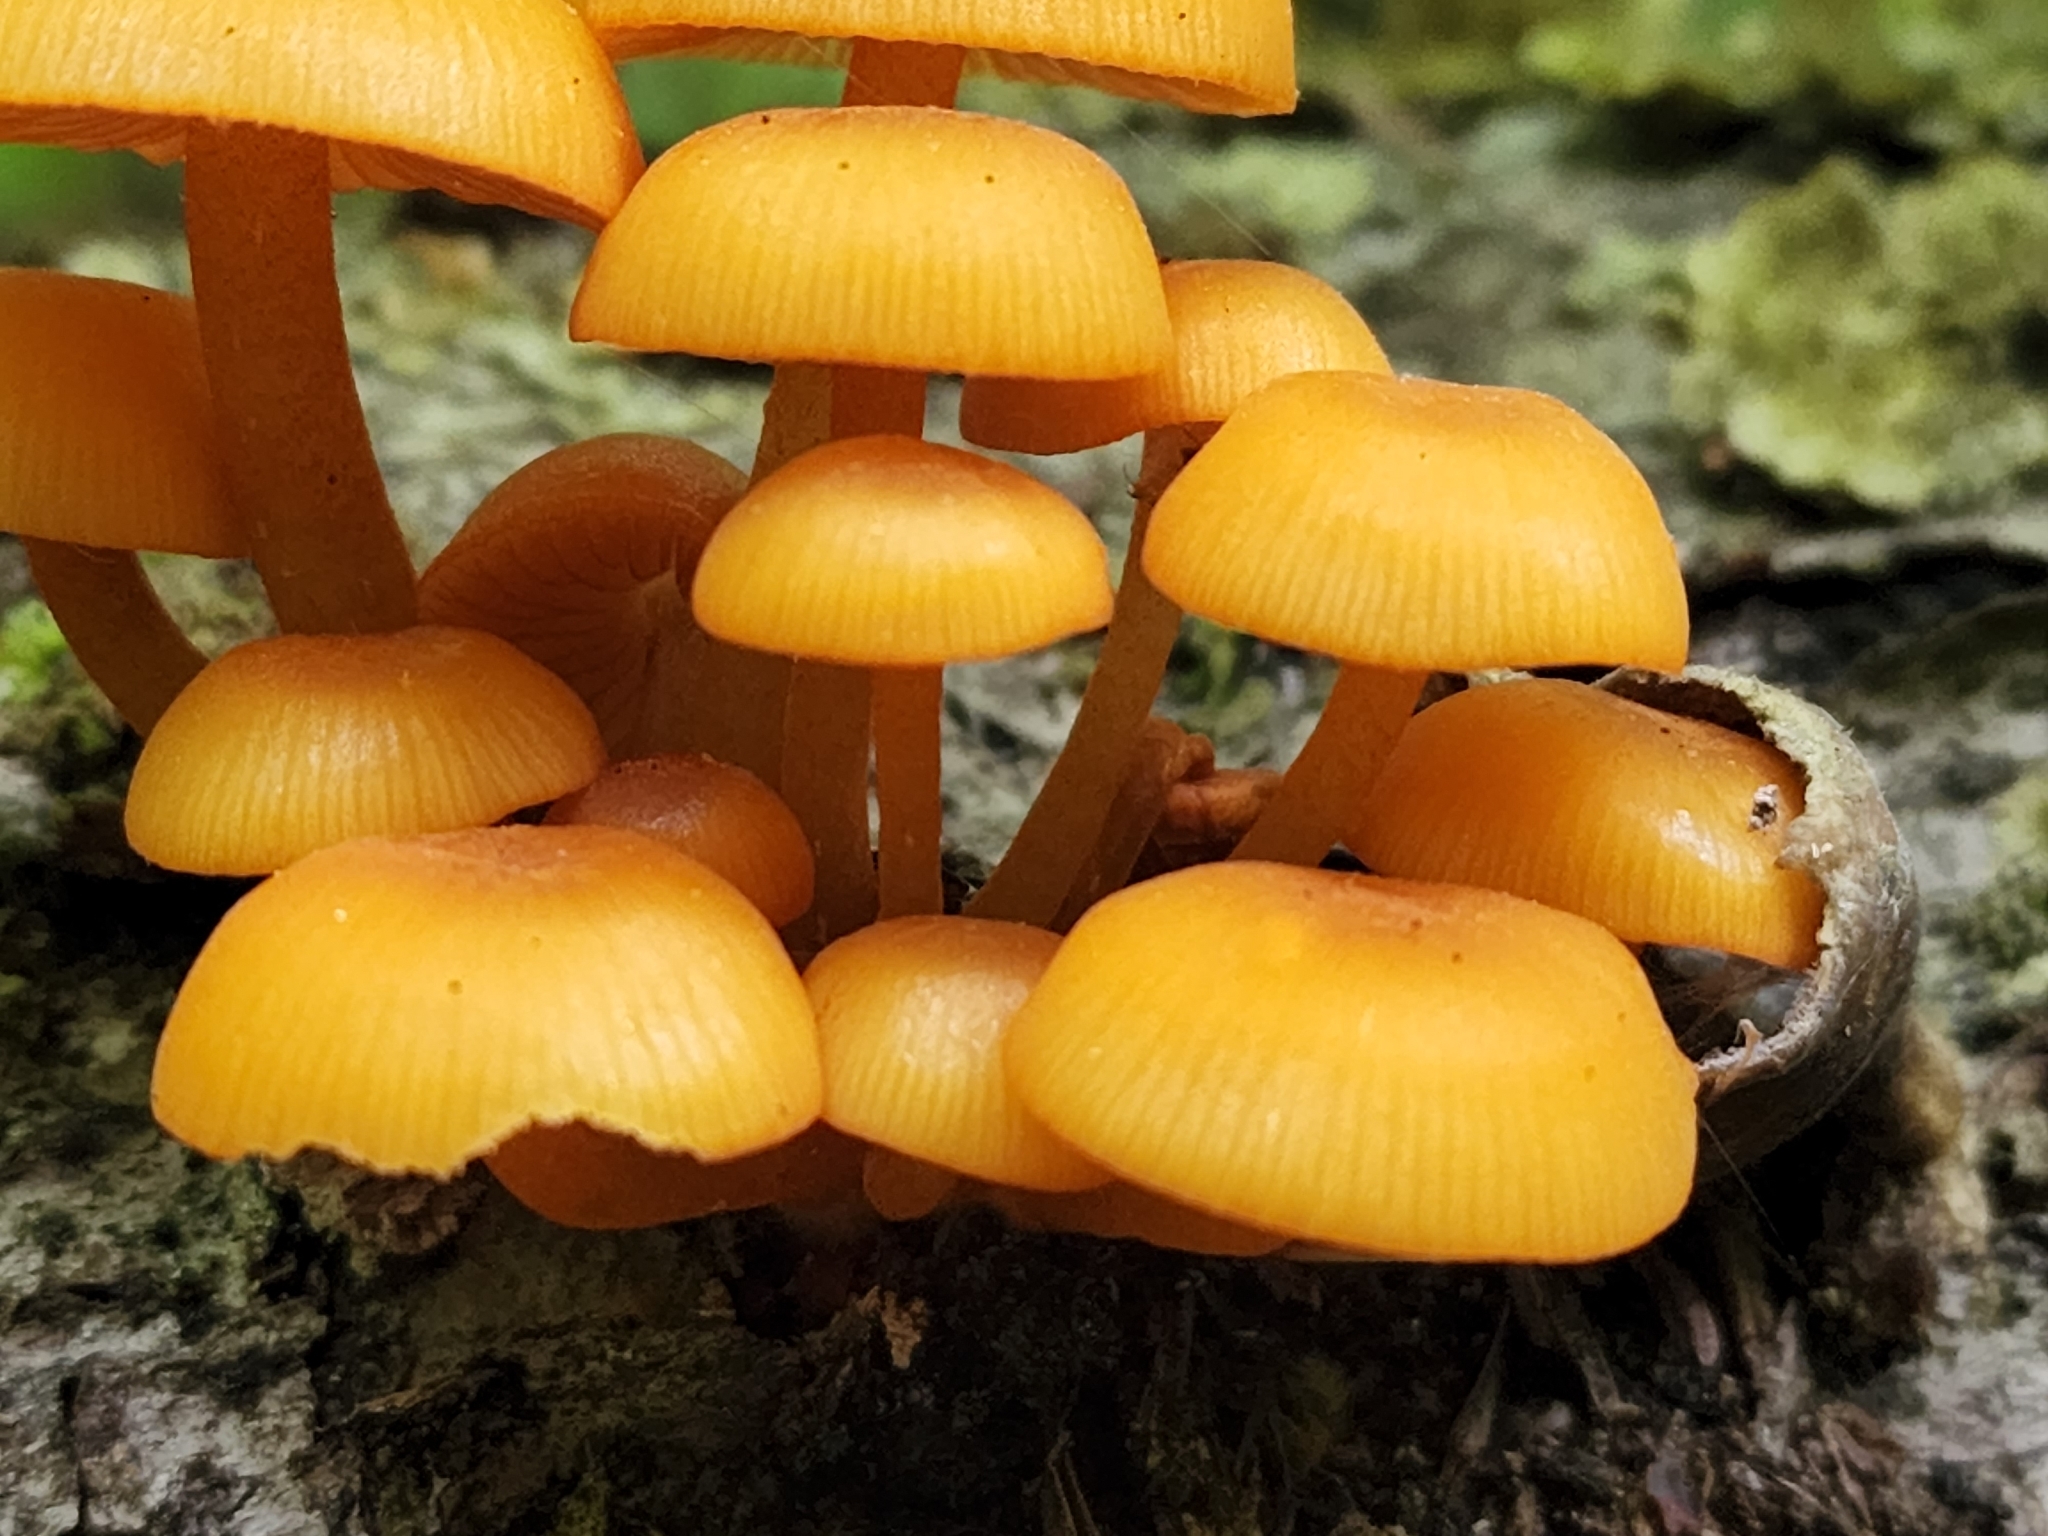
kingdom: Fungi
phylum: Basidiomycota
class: Agaricomycetes
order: Agaricales
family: Mycenaceae
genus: Mycena
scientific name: Mycena leaiana
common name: Orange mycena
